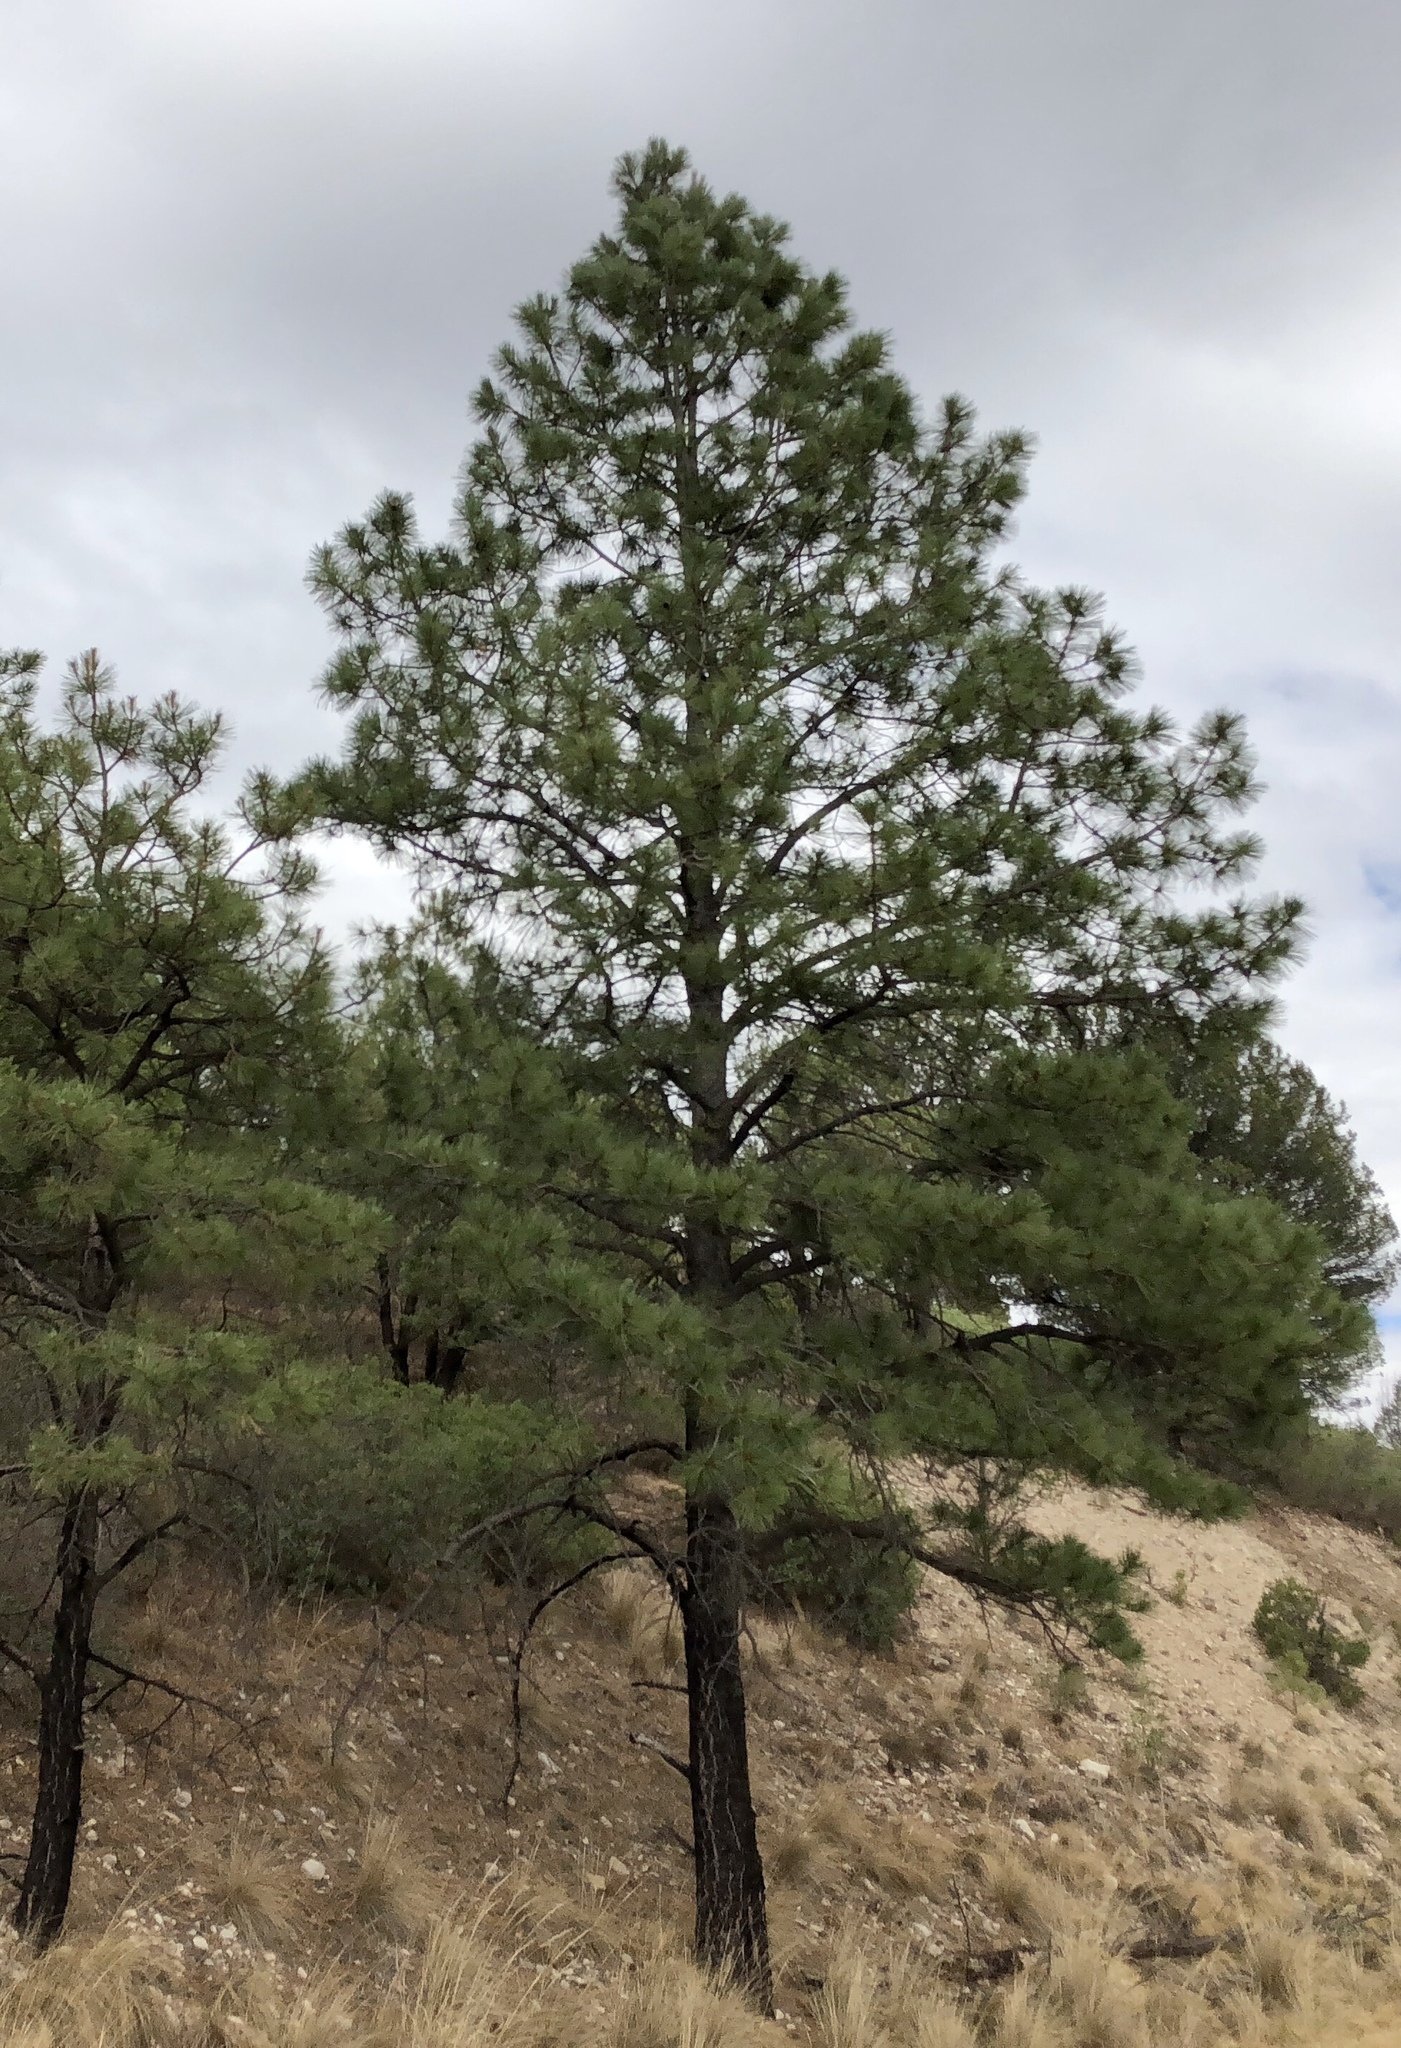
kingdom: Plantae
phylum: Tracheophyta
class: Pinopsida
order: Pinales
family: Pinaceae
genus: Pinus
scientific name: Pinus ponderosa
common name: Western yellow-pine
